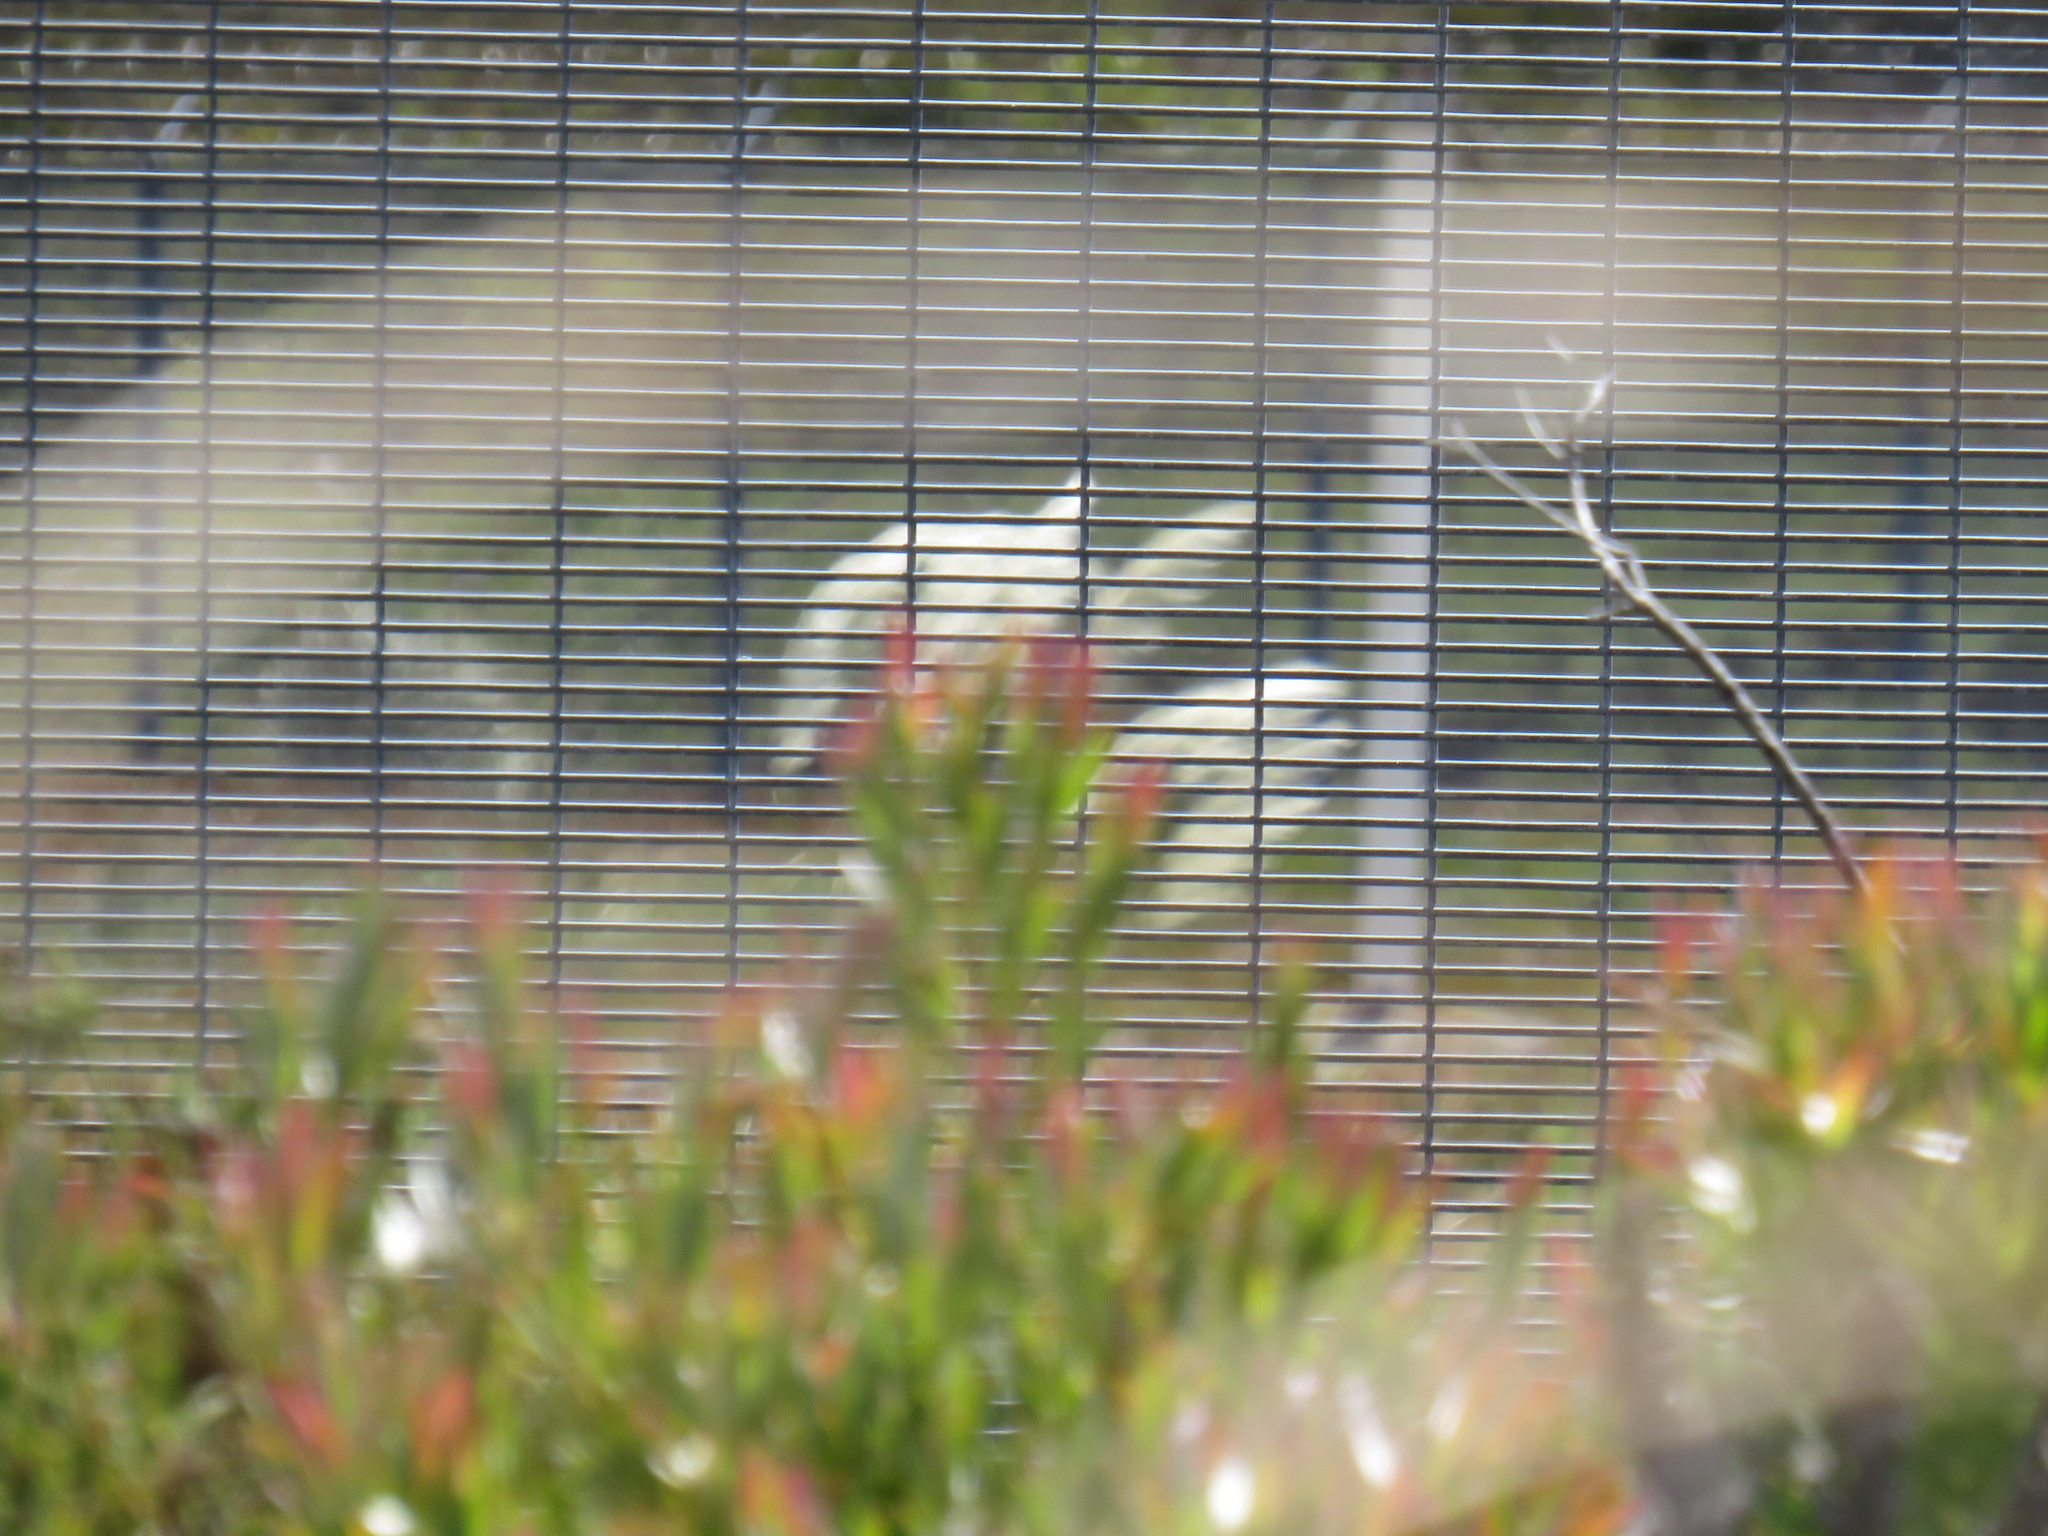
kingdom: Plantae
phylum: Tracheophyta
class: Liliopsida
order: Poales
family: Poaceae
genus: Cortaderia
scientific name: Cortaderia selloana
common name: Uruguayan pampas grass
